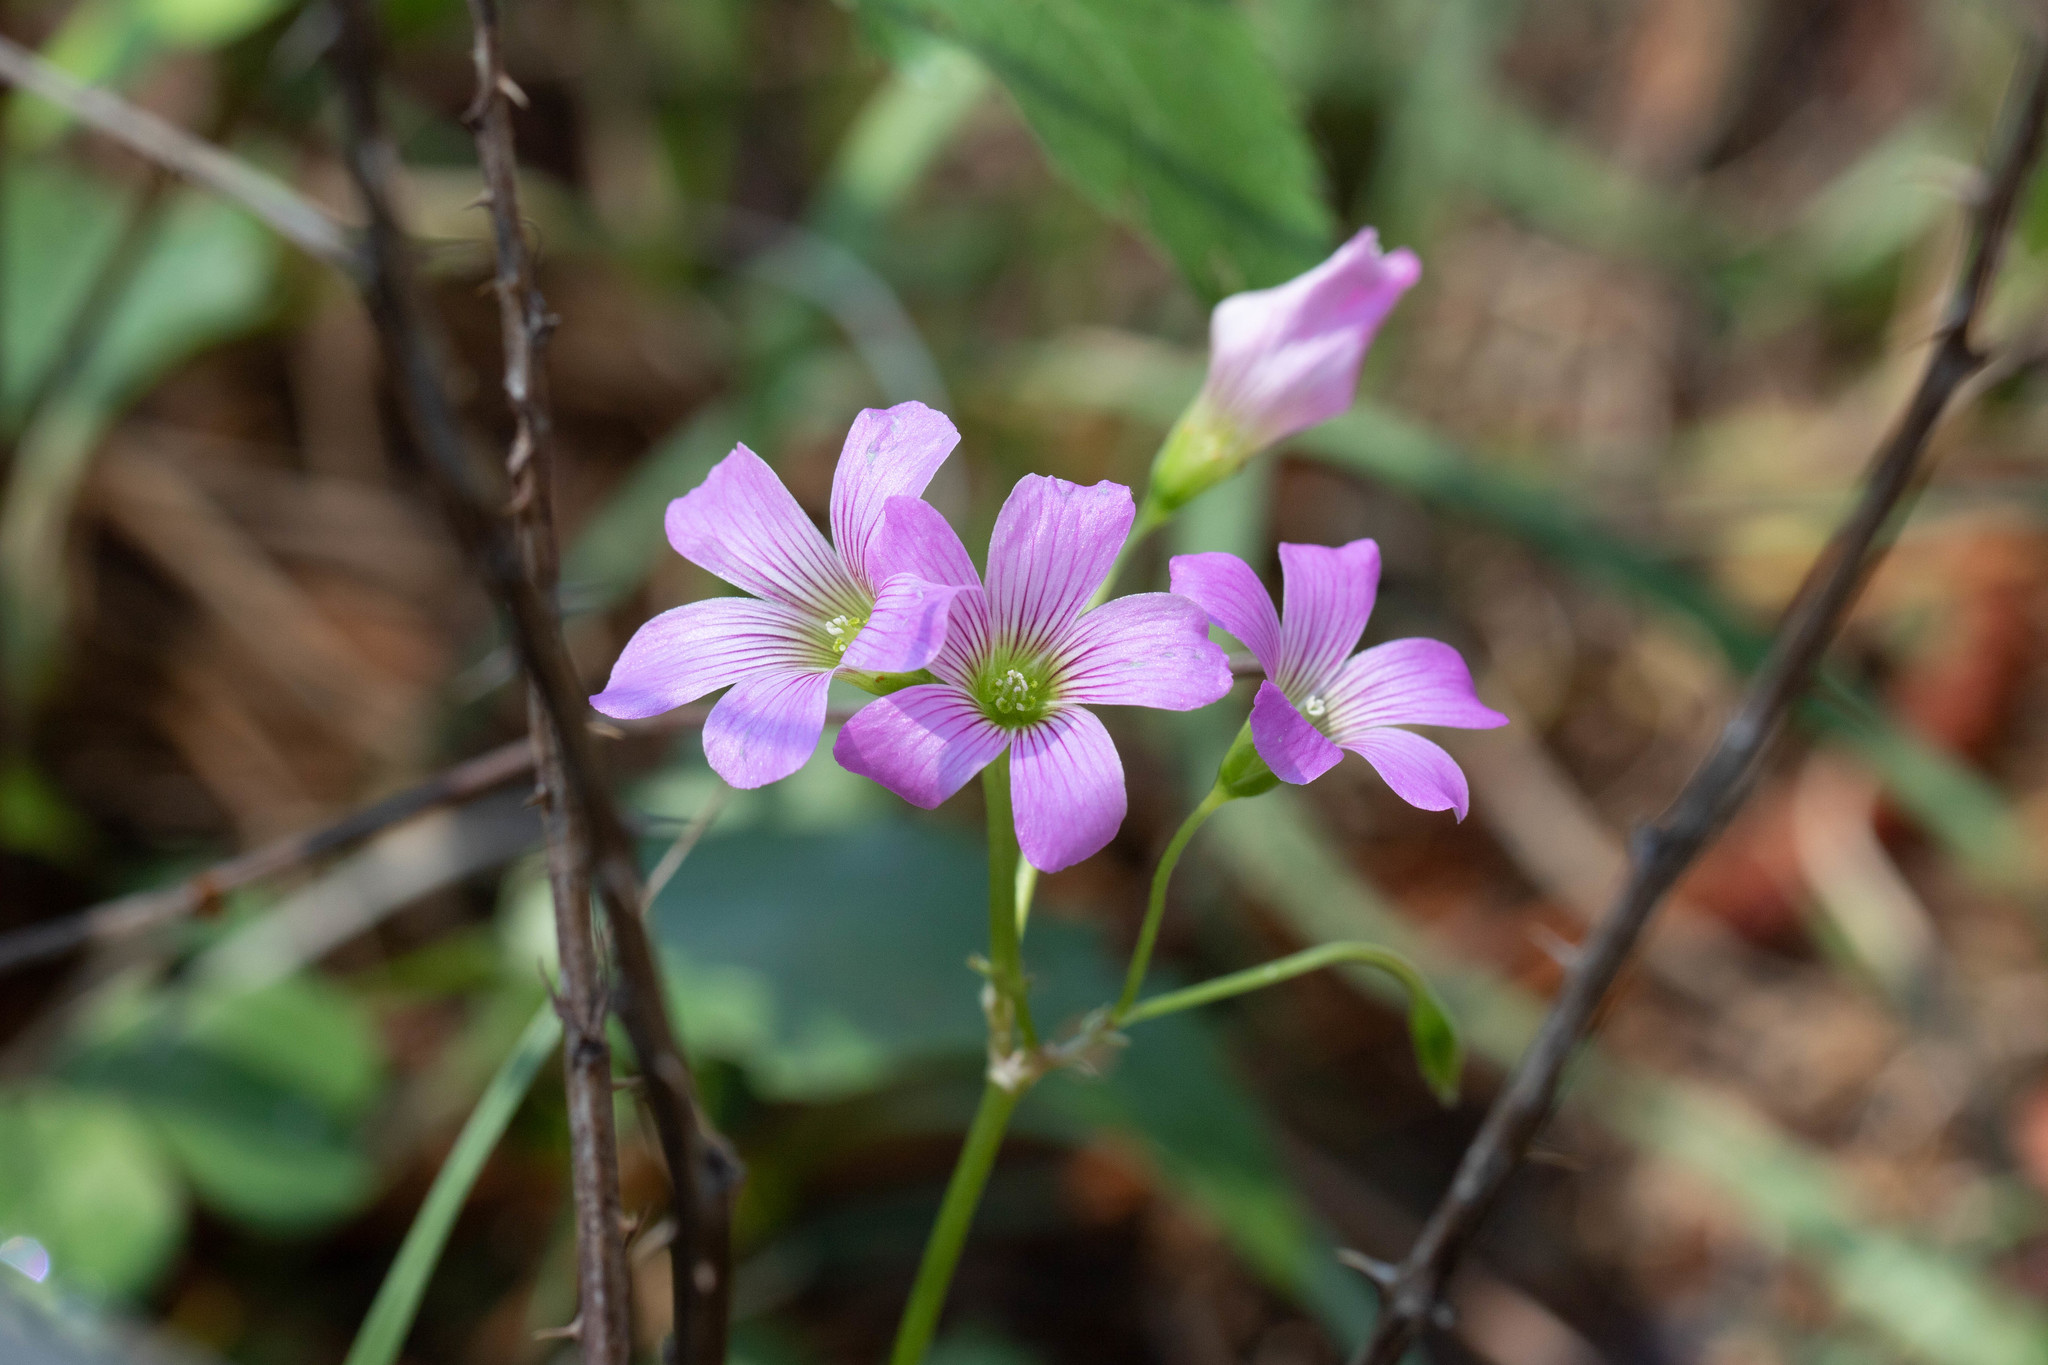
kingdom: Plantae
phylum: Tracheophyta
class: Magnoliopsida
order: Oxalidales
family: Oxalidaceae
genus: Oxalis
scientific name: Oxalis debilis
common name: Large-flowered pink-sorrel
